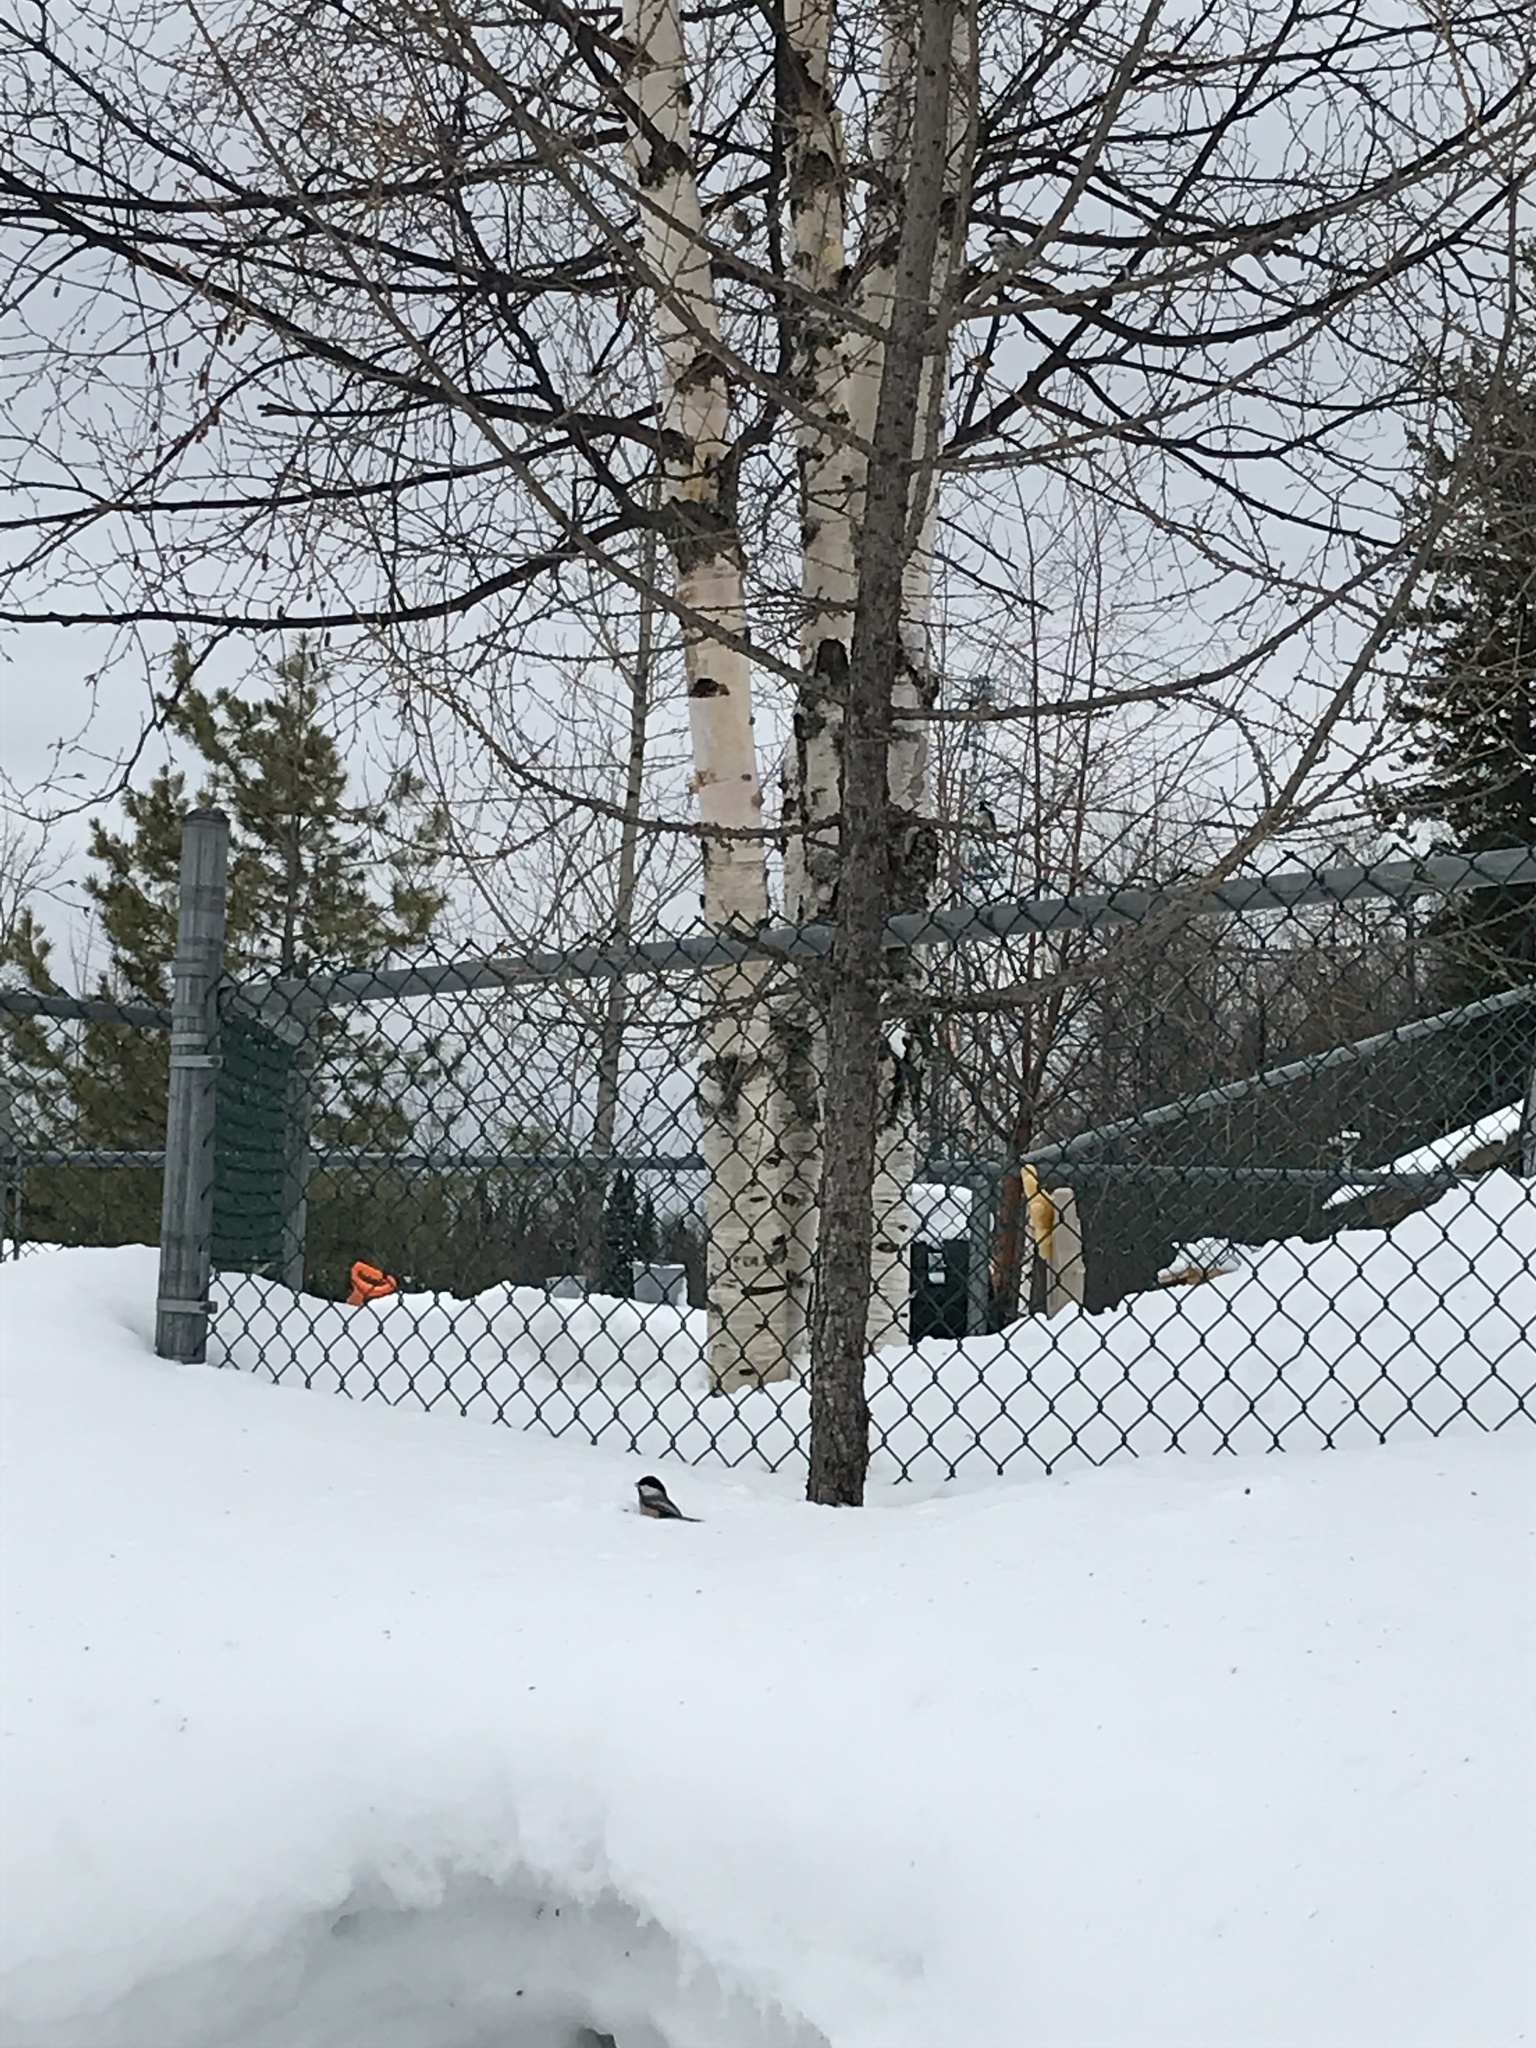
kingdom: Animalia
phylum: Chordata
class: Aves
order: Passeriformes
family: Paridae
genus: Poecile
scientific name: Poecile atricapillus
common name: Black-capped chickadee
